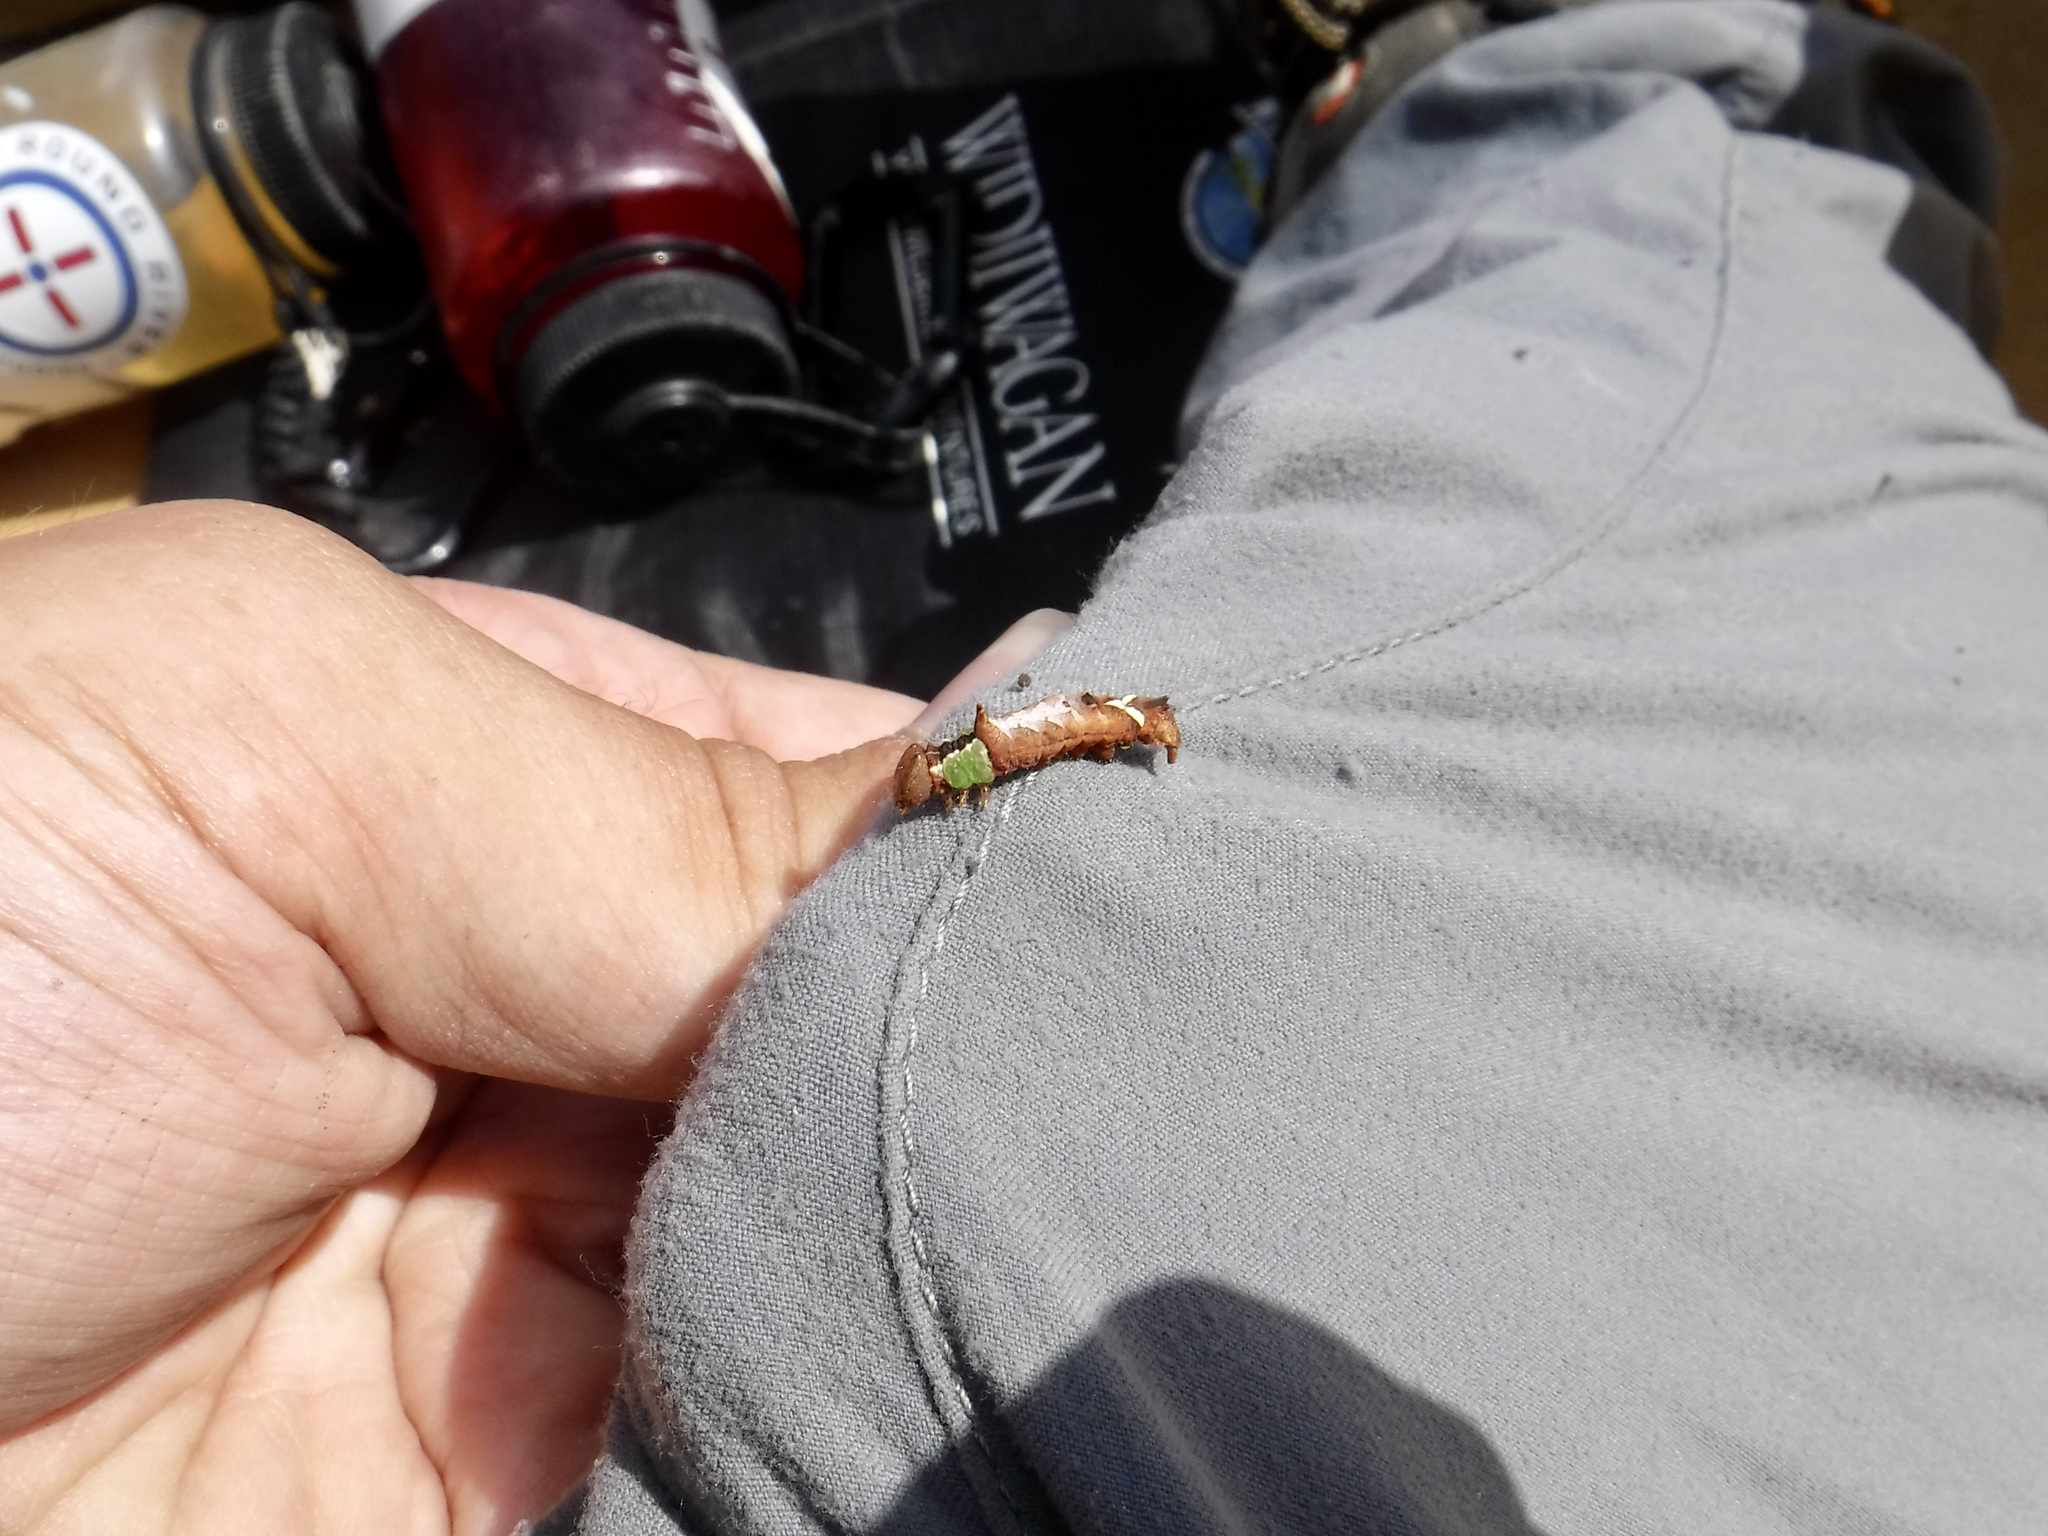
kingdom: Animalia
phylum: Arthropoda
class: Insecta
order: Lepidoptera
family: Notodontidae
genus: Schizura
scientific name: Schizura
